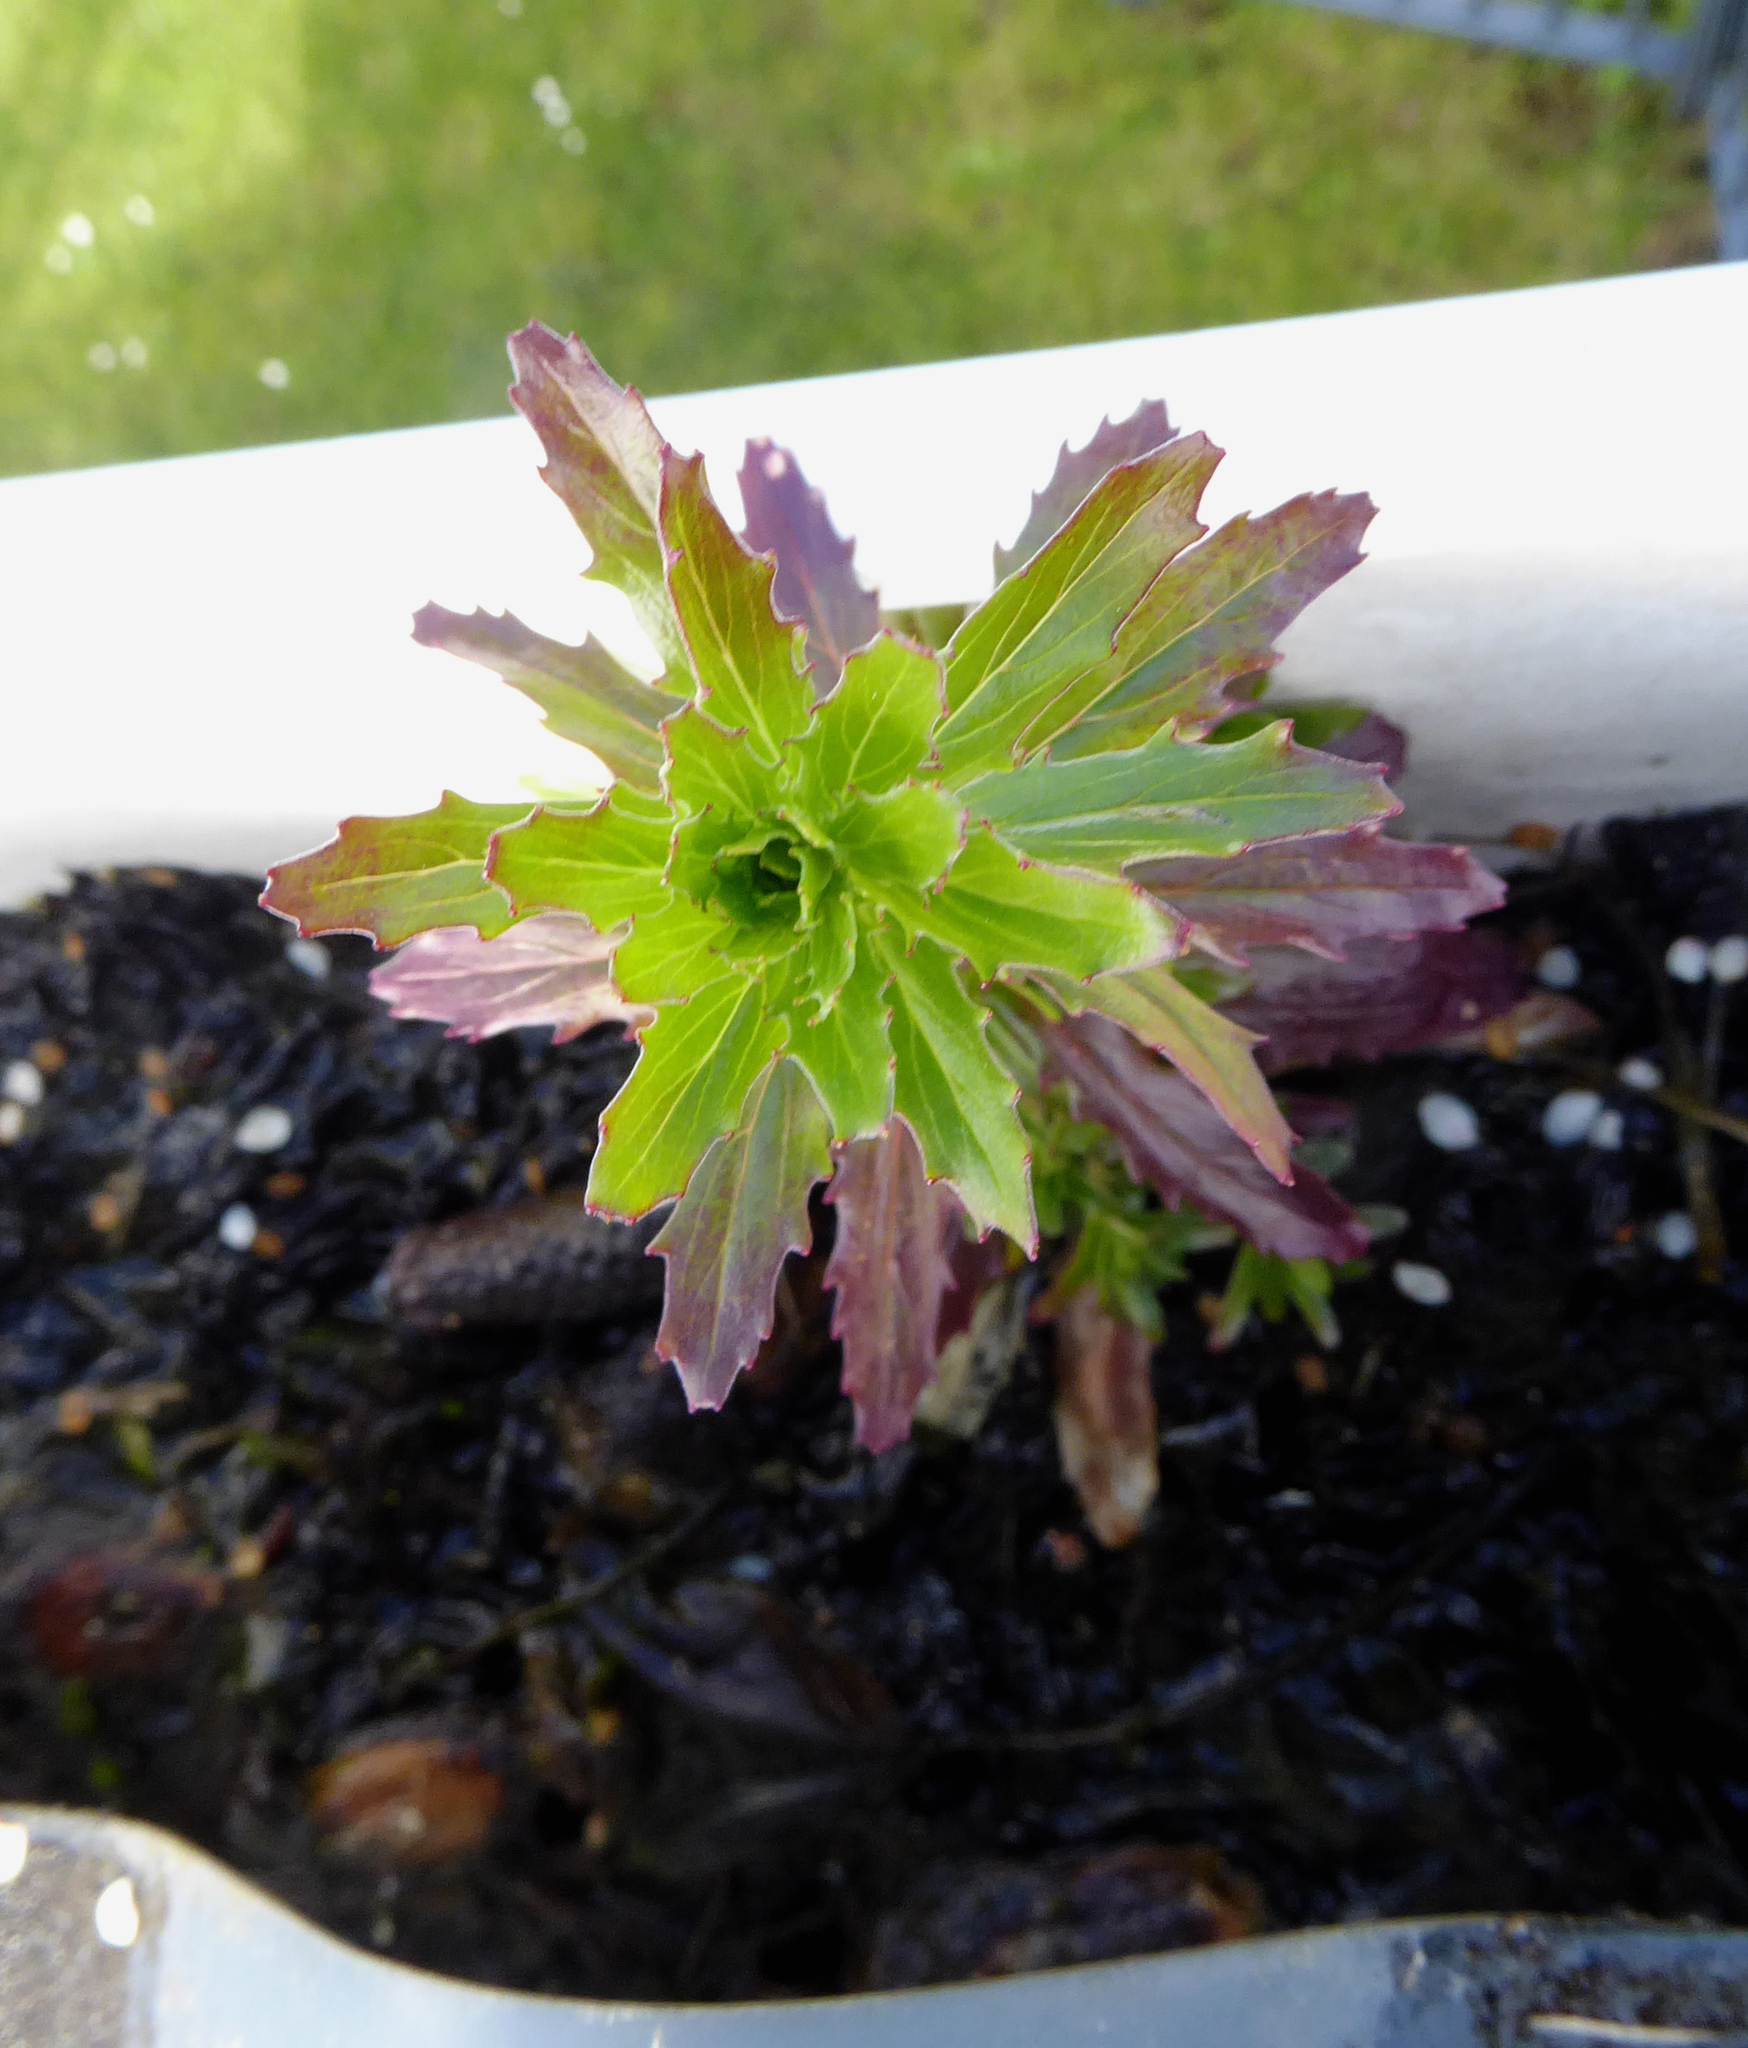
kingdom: Plantae
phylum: Tracheophyta
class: Magnoliopsida
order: Myrtales
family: Onagraceae
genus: Epilobium
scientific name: Epilobium billardierianum
